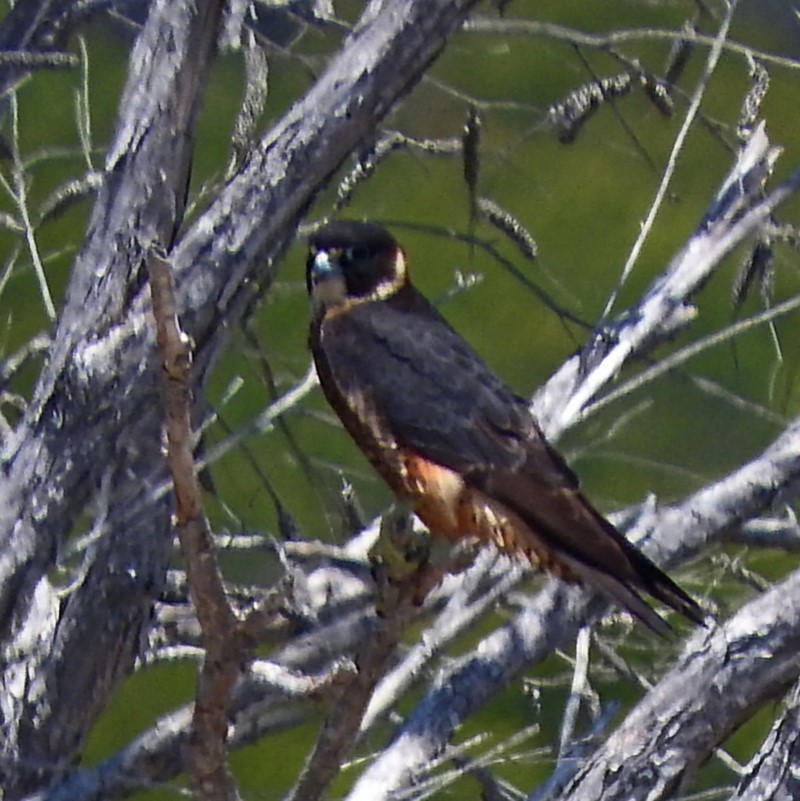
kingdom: Animalia
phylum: Chordata
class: Aves
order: Falconiformes
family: Falconidae
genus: Falco
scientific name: Falco longipennis
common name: Australian hobby
